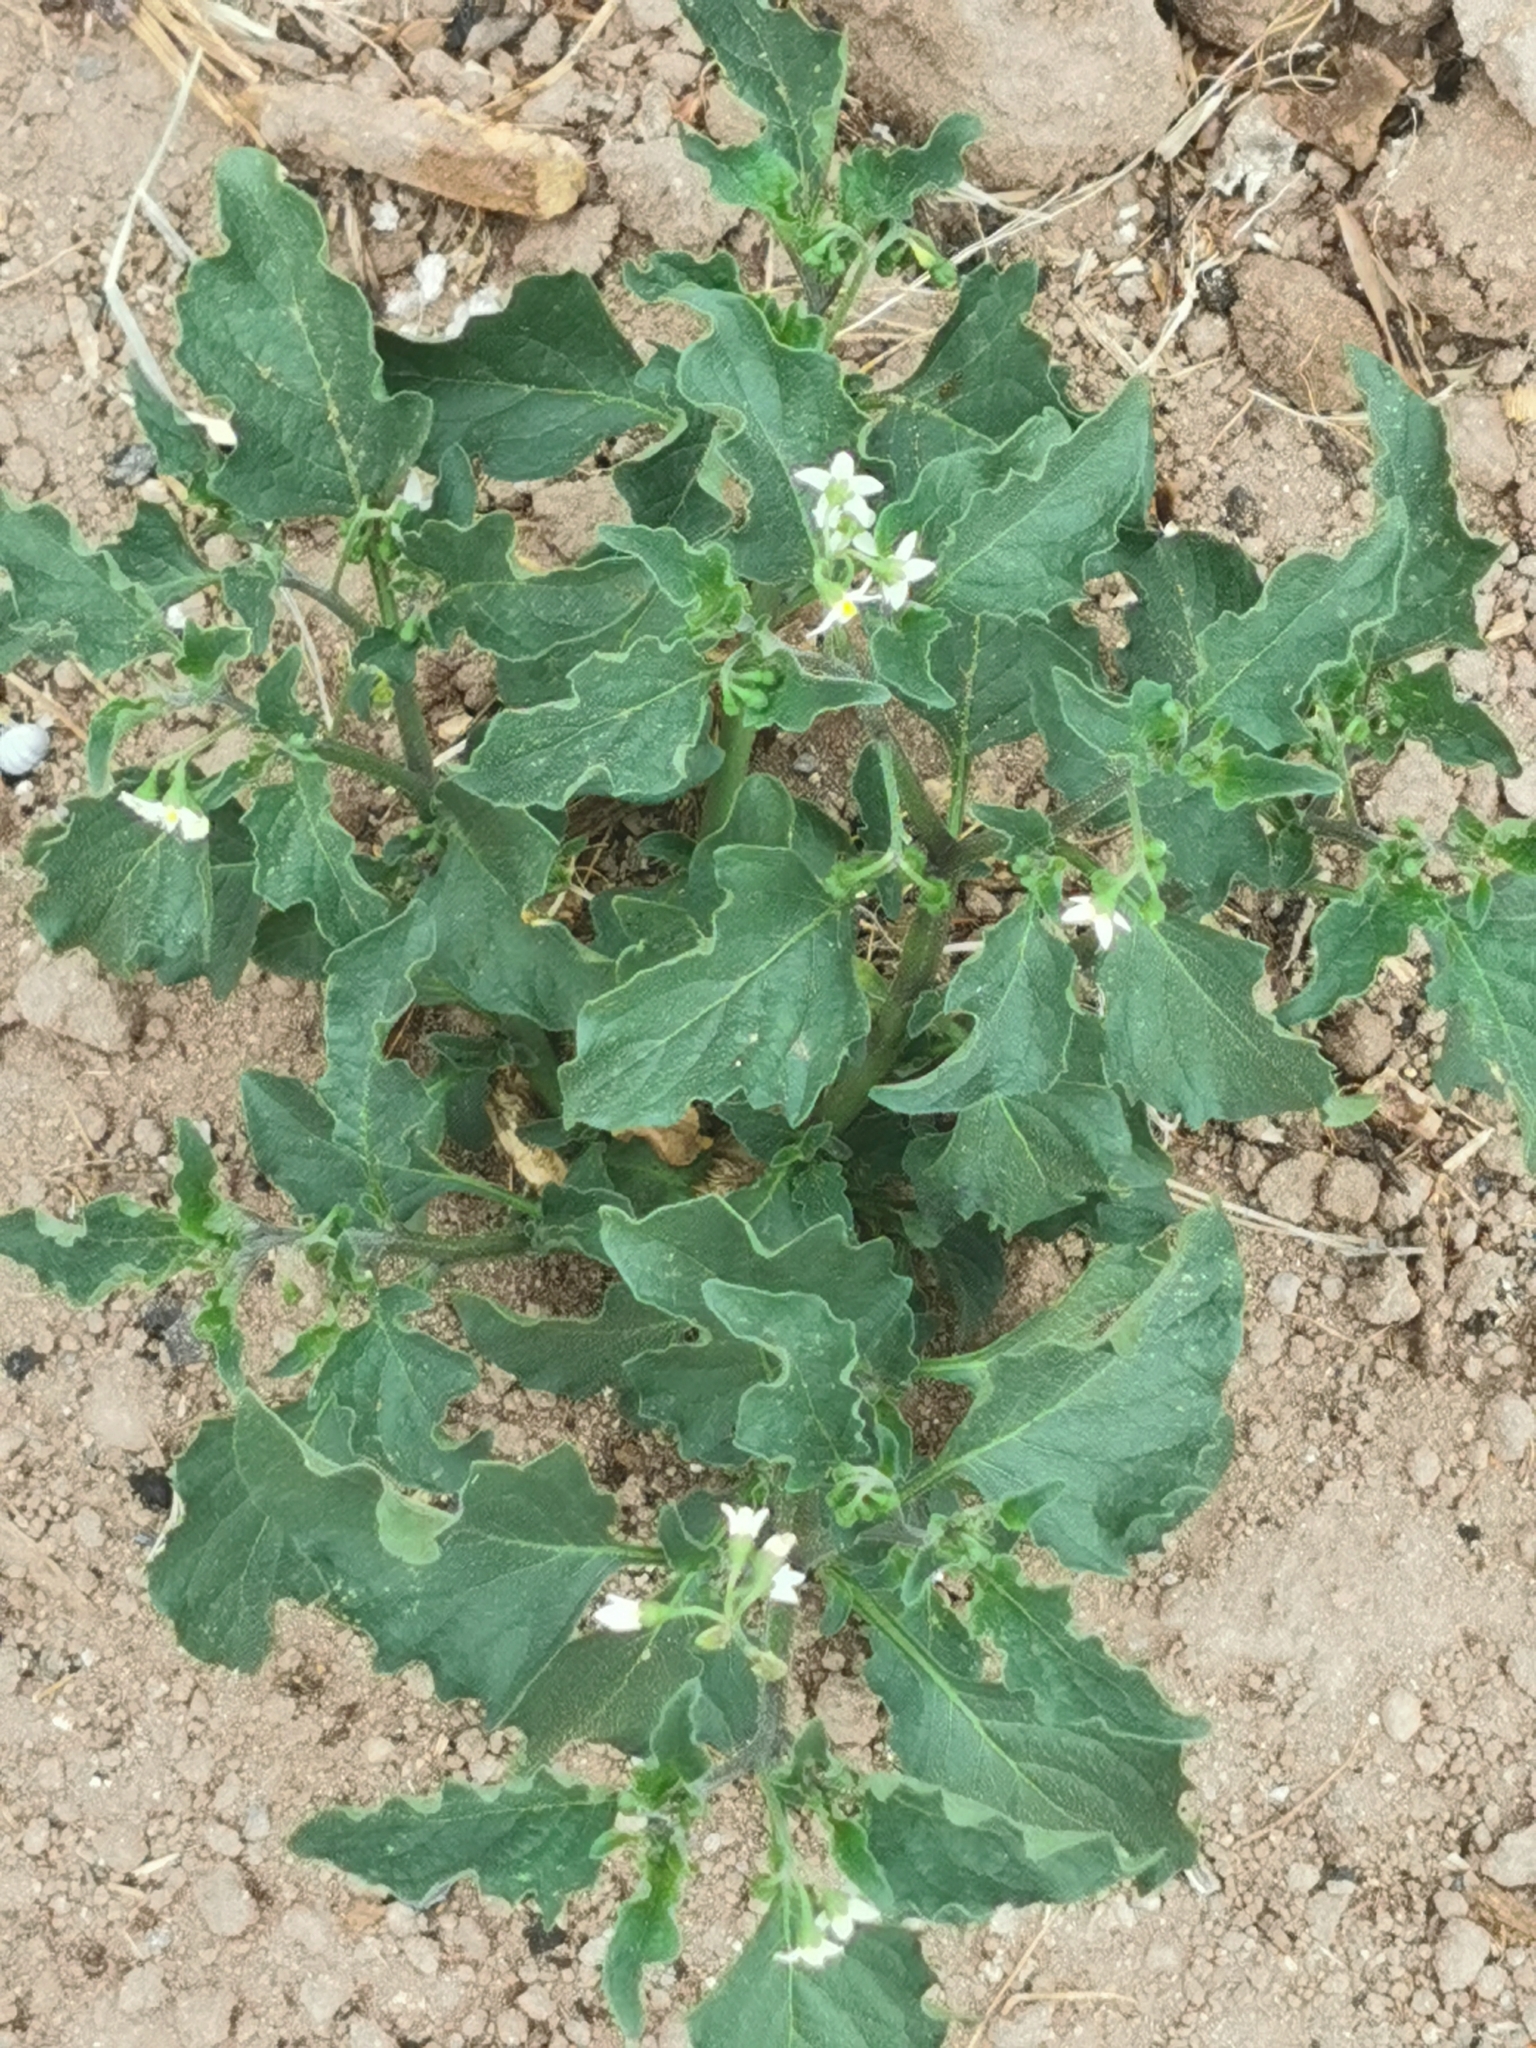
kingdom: Plantae
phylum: Tracheophyta
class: Magnoliopsida
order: Solanales
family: Solanaceae
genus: Solanum
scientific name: Solanum americanum
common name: American black nightshade
